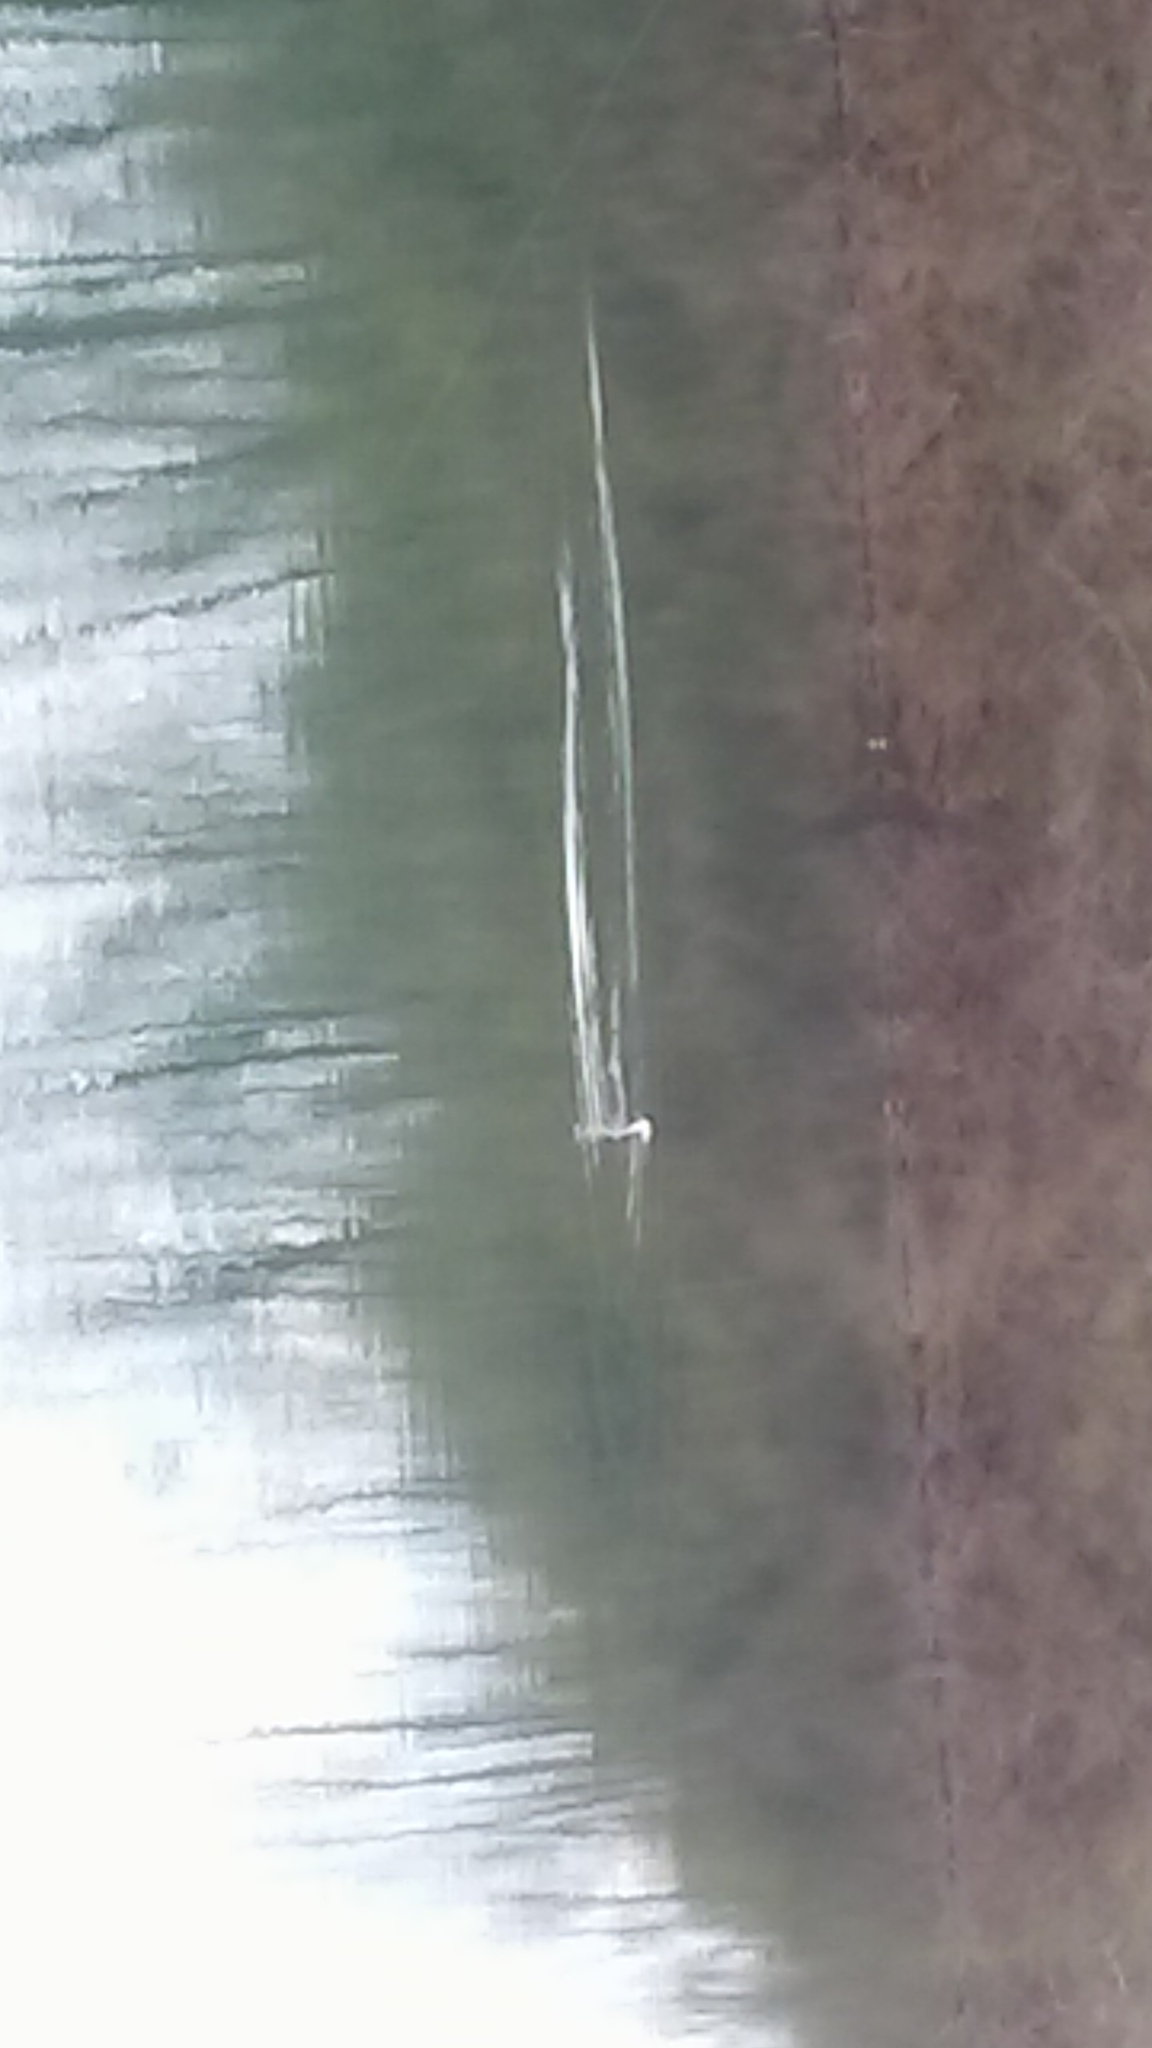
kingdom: Animalia
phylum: Chordata
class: Aves
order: Gaviiformes
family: Gaviidae
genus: Gavia
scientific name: Gavia stellata
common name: Red-throated loon
